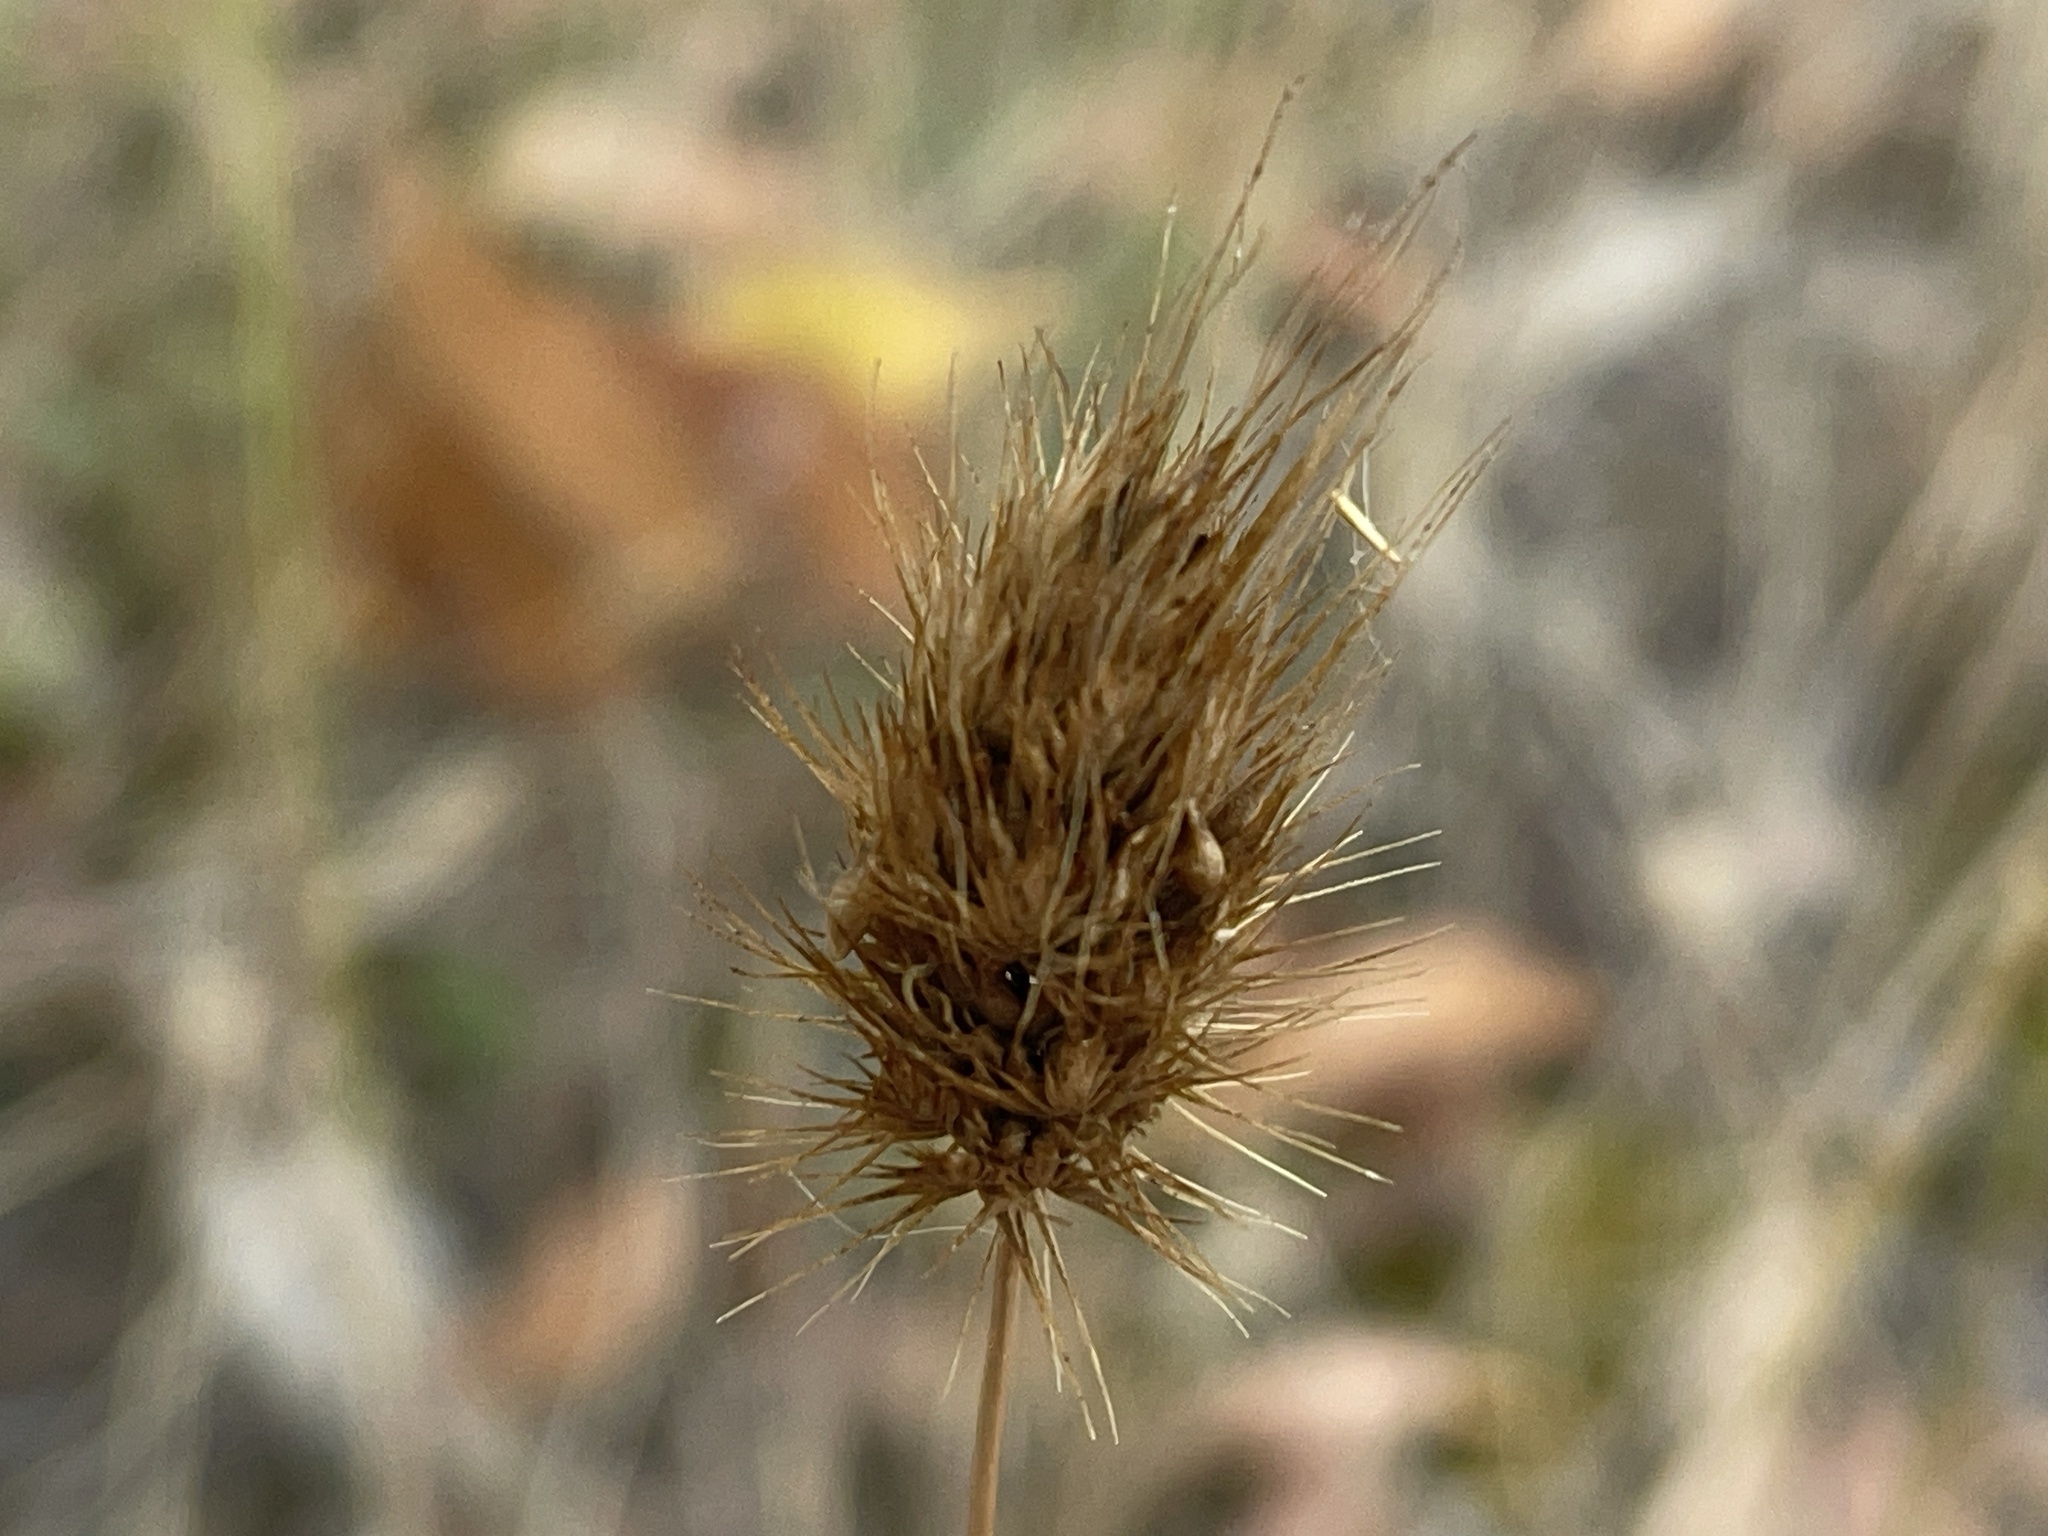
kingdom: Plantae
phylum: Tracheophyta
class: Liliopsida
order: Poales
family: Poaceae
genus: Cynosurus
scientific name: Cynosurus echinatus
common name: Rough dog's-tail
